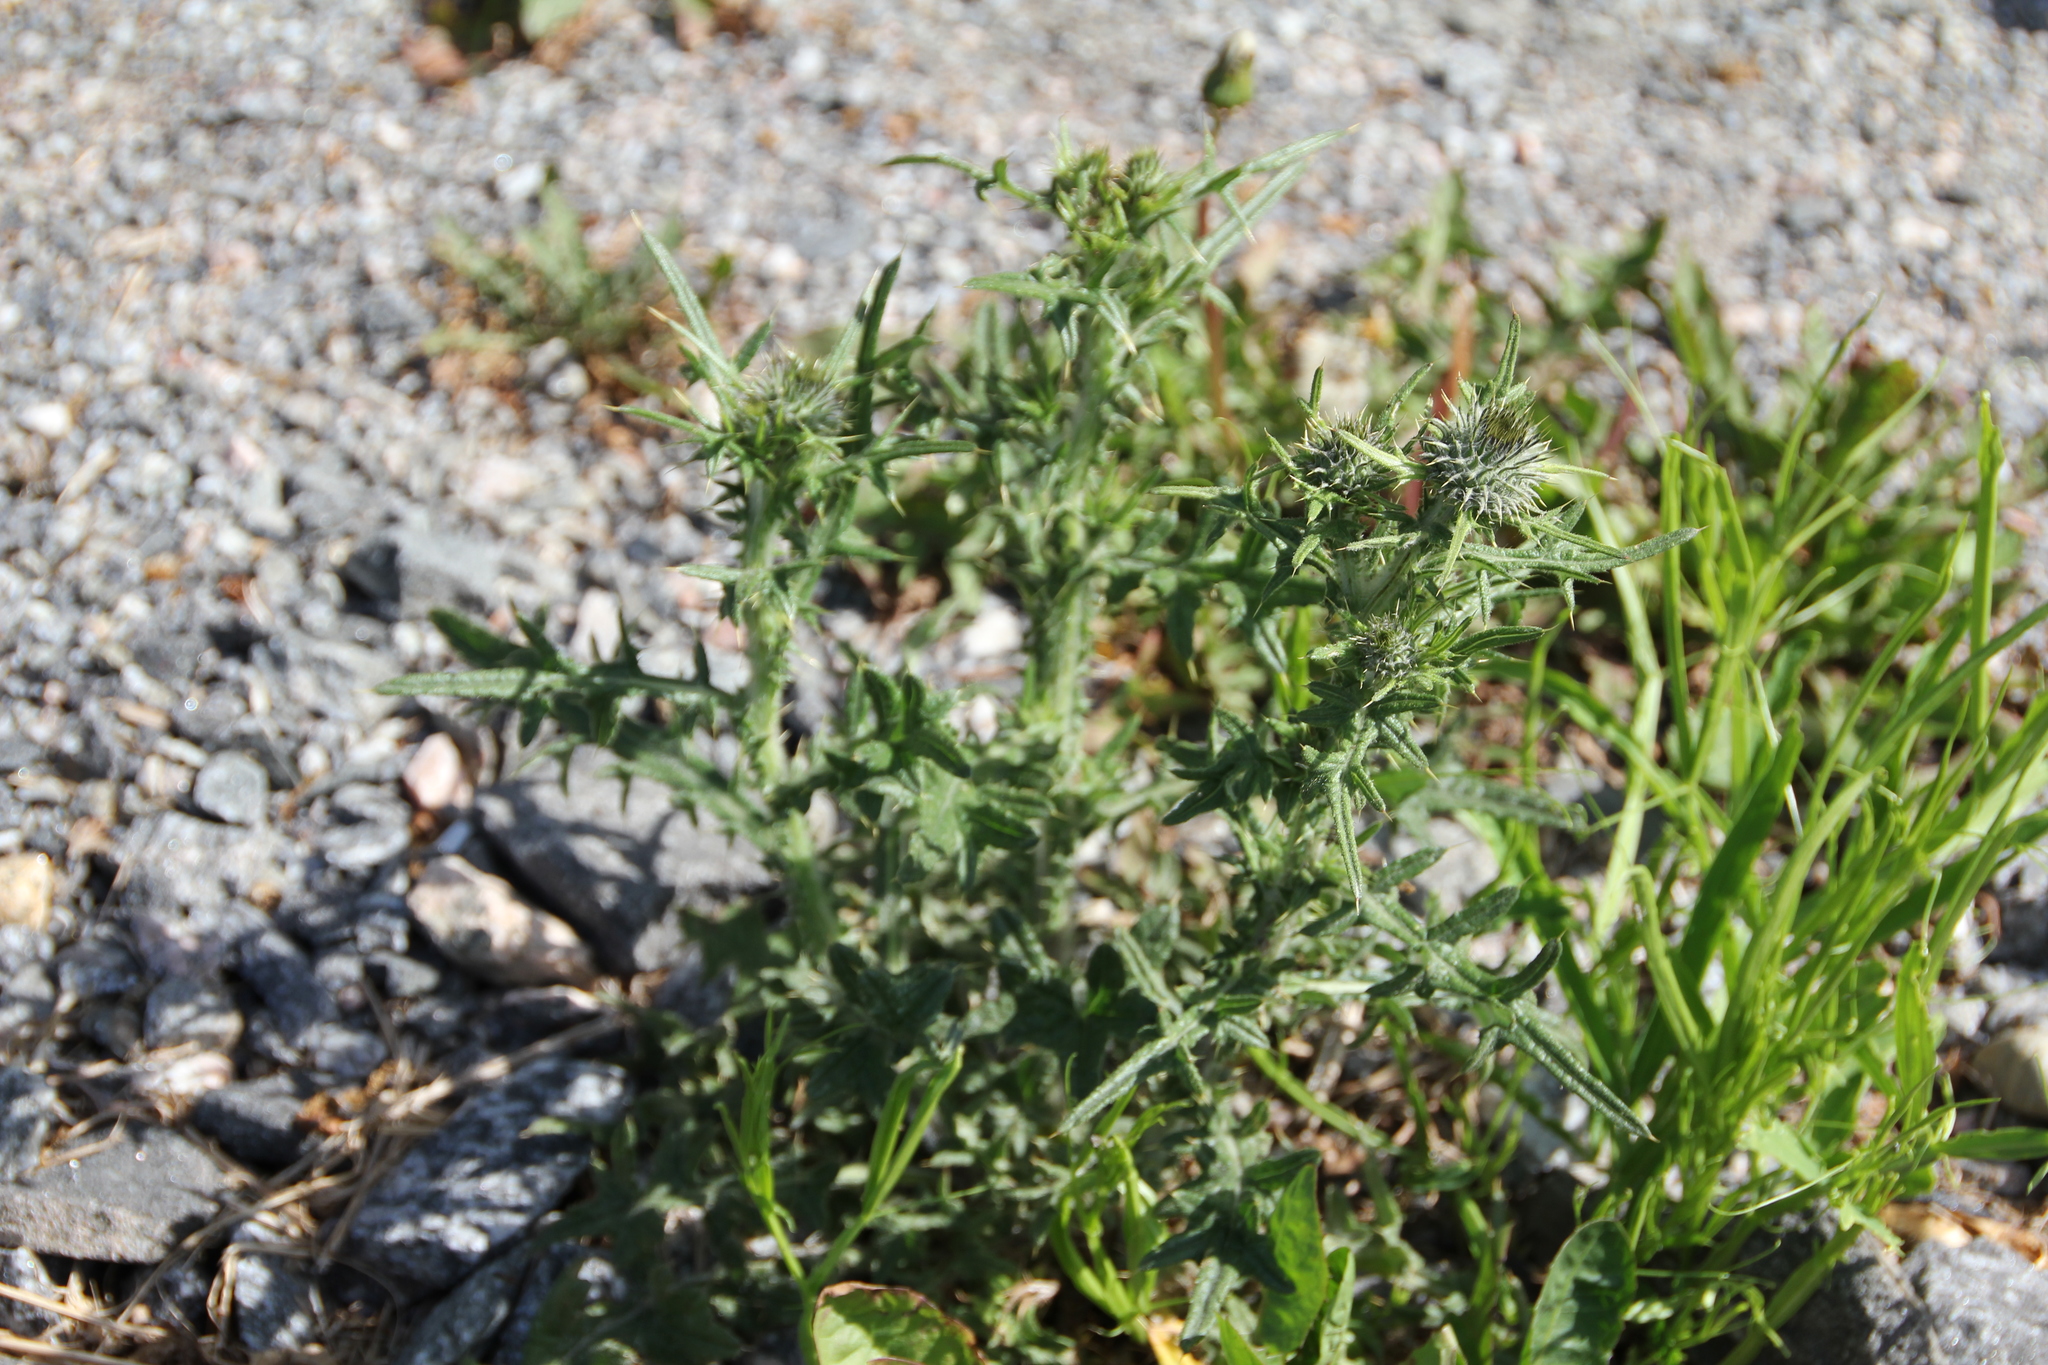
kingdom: Plantae
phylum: Tracheophyta
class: Magnoliopsida
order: Asterales
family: Asteraceae
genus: Cirsium
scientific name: Cirsium vulgare
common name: Bull thistle
